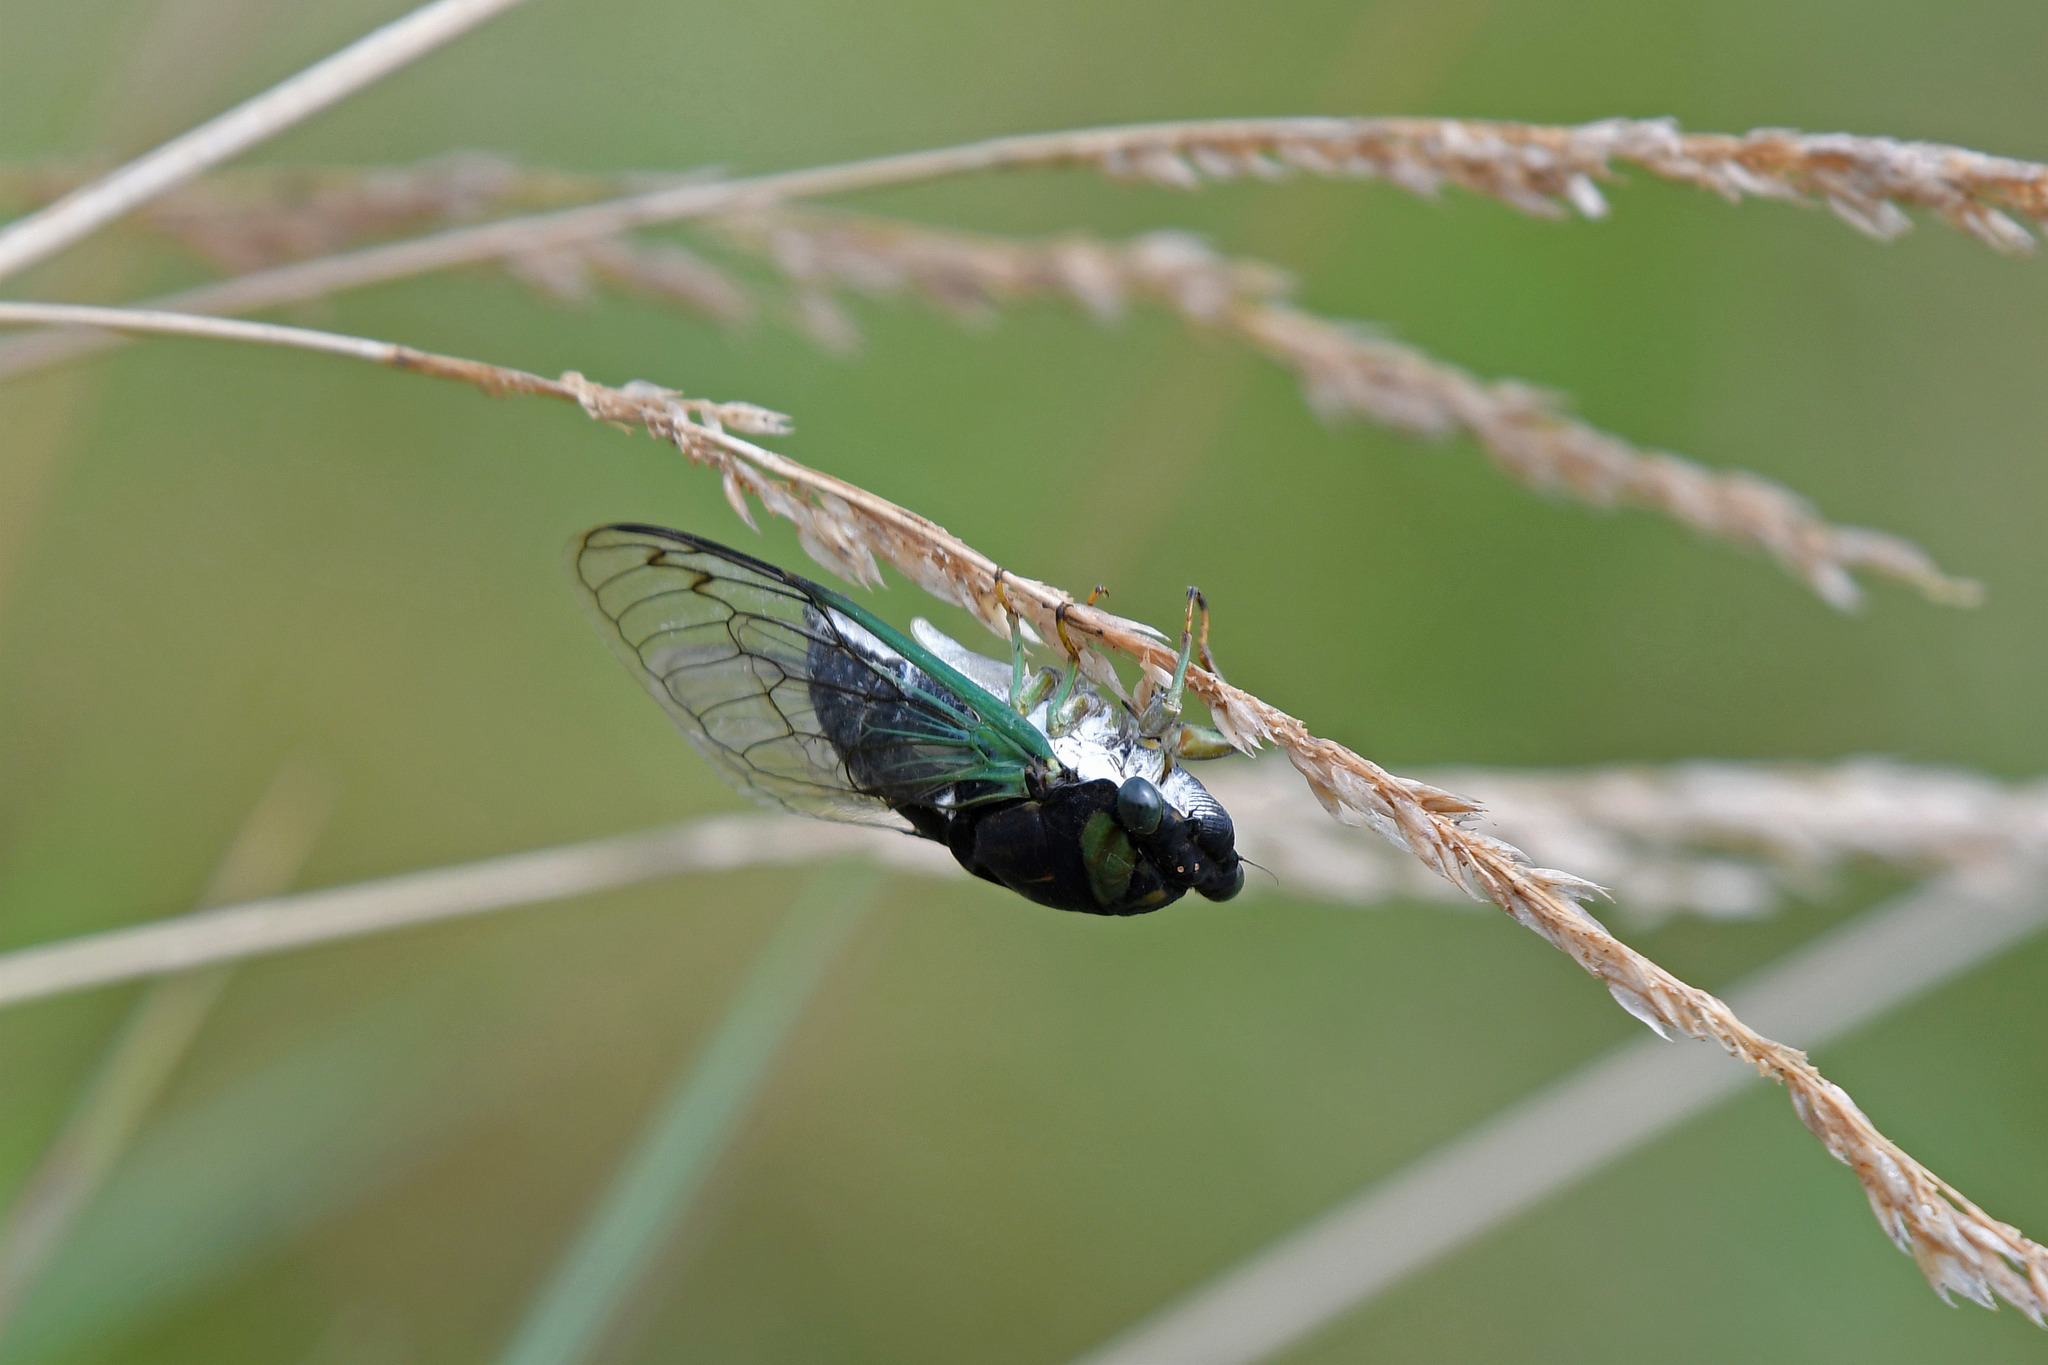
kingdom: Animalia
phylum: Arthropoda
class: Insecta
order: Hemiptera
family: Cicadidae
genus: Neotibicen
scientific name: Neotibicen tibicen
